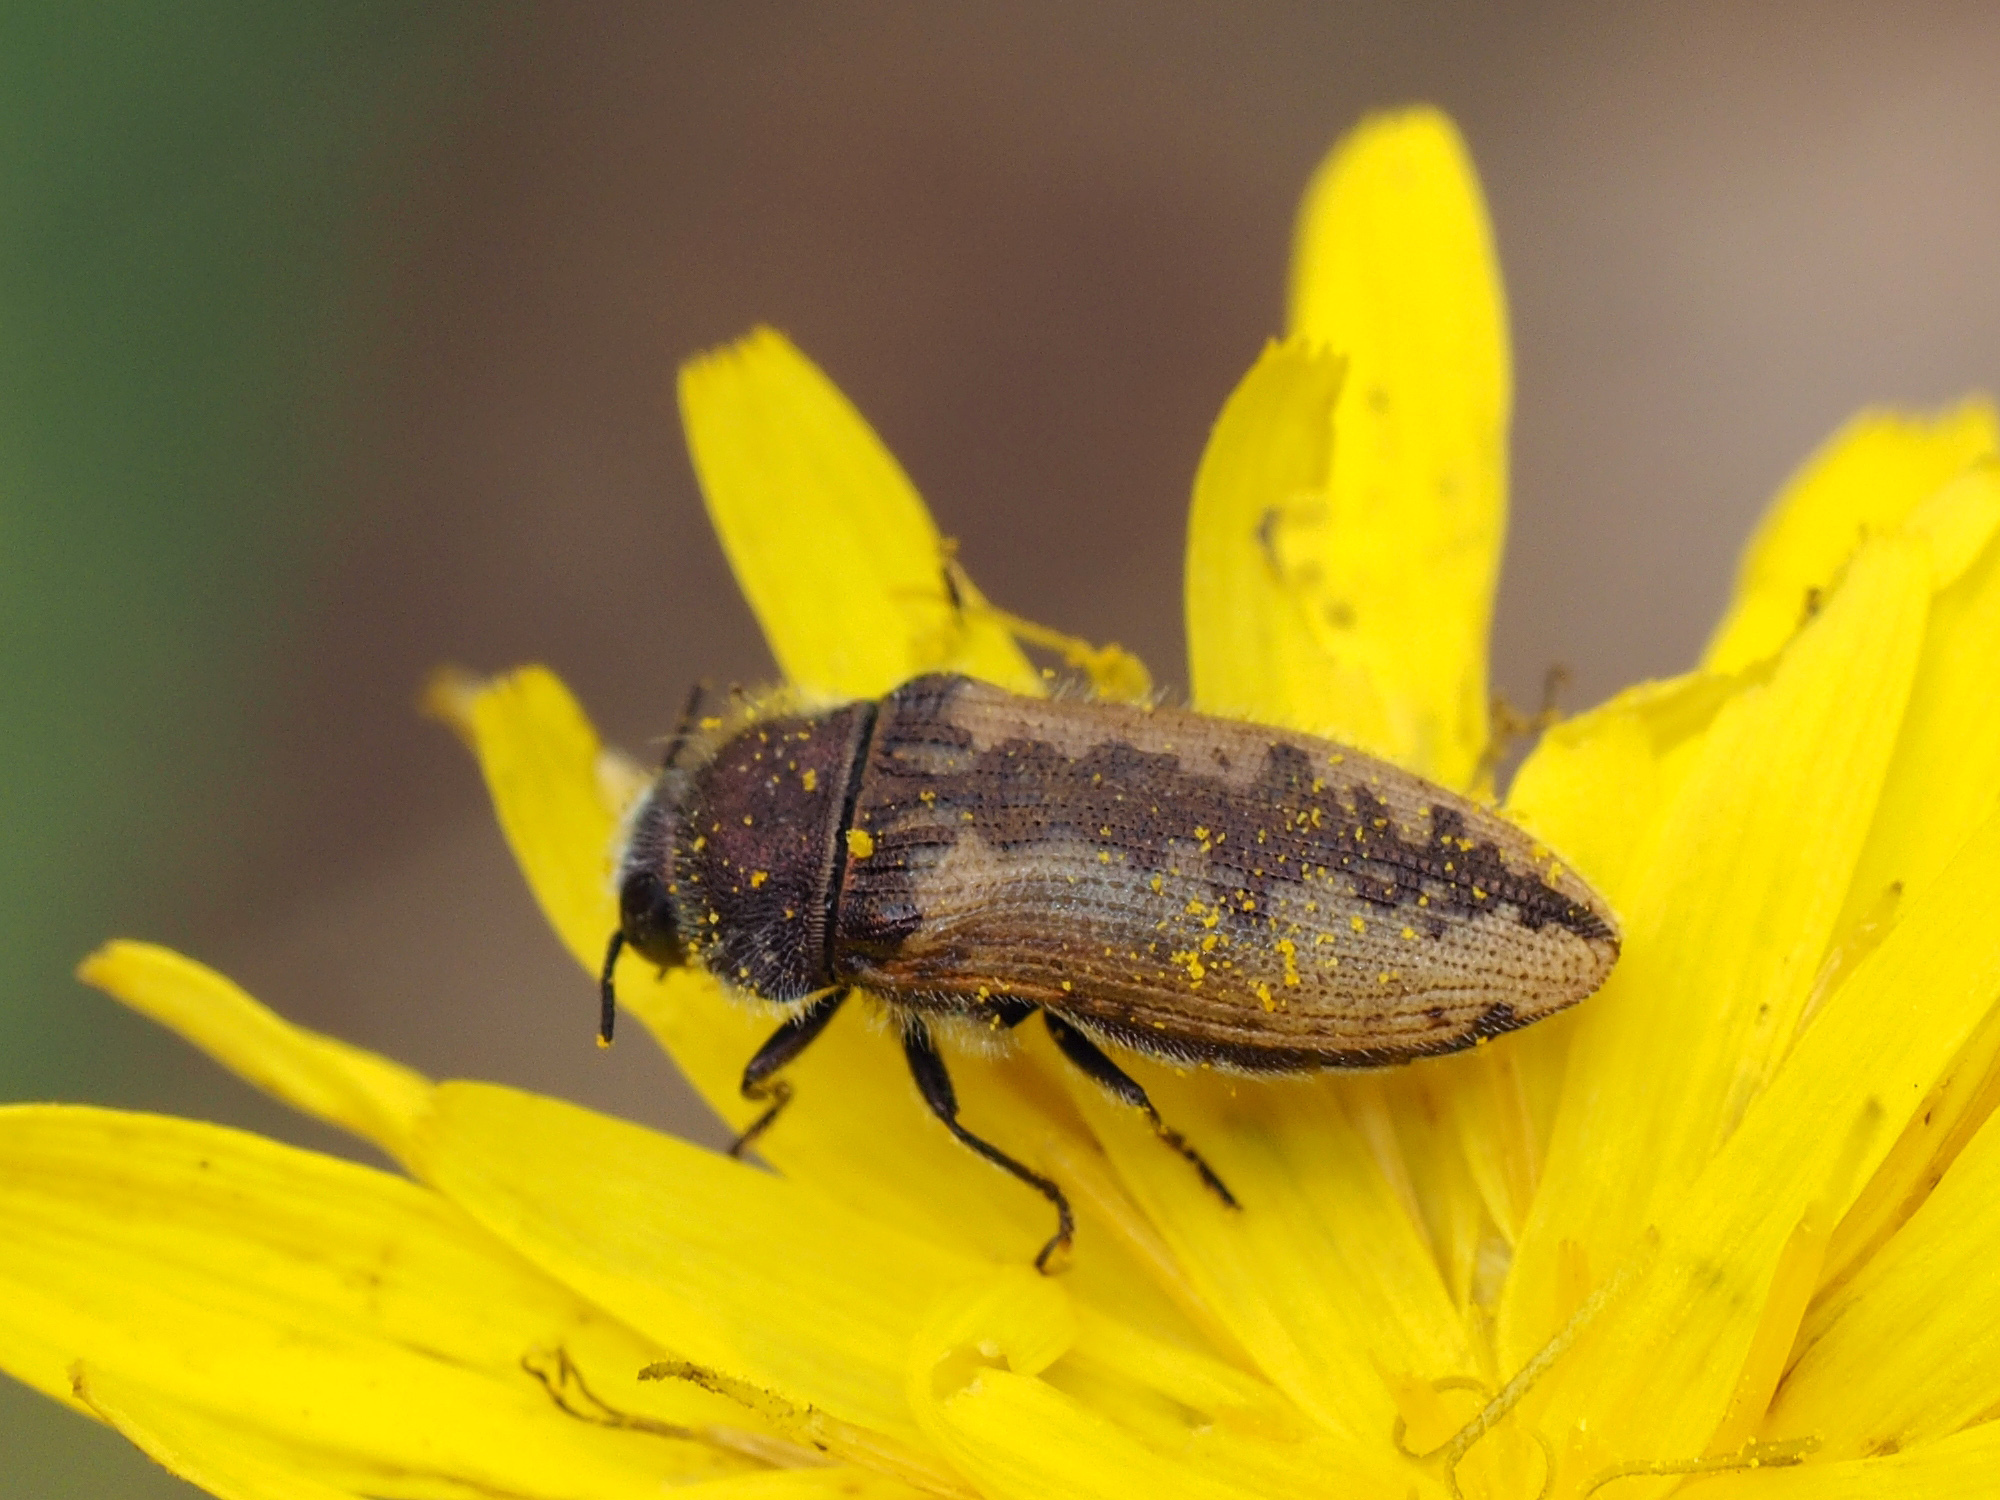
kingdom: Animalia
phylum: Arthropoda
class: Insecta
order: Coleoptera
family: Buprestidae
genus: Acmaeodera
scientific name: Acmaeodera pilosellae
